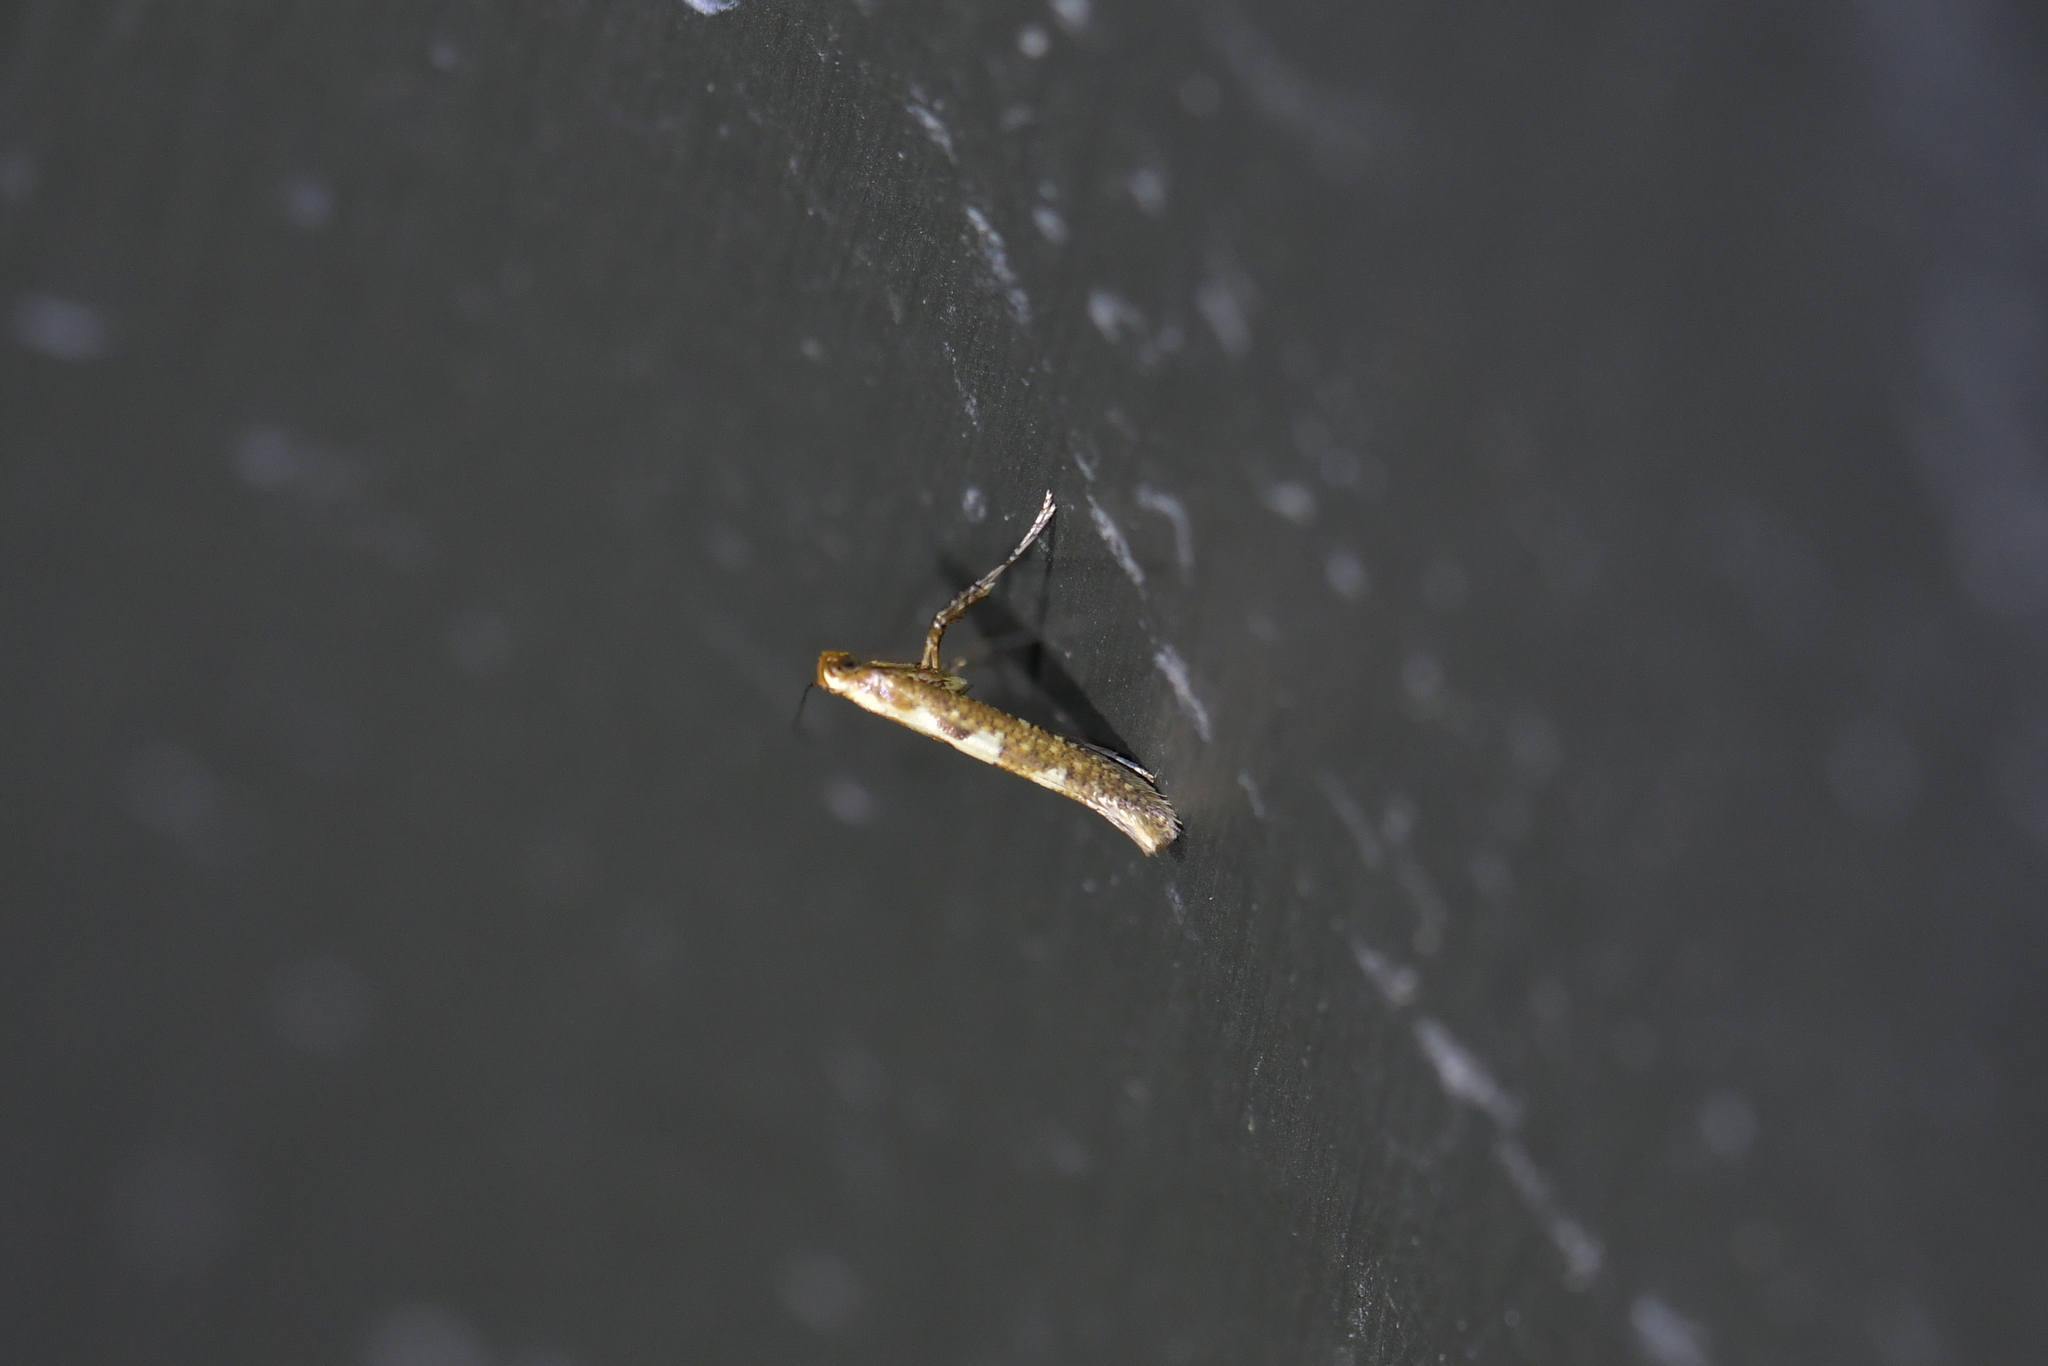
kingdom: Animalia
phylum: Arthropoda
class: Insecta
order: Lepidoptera
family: Gracillariidae
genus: Caloptilia
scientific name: Caloptilia selenitis
